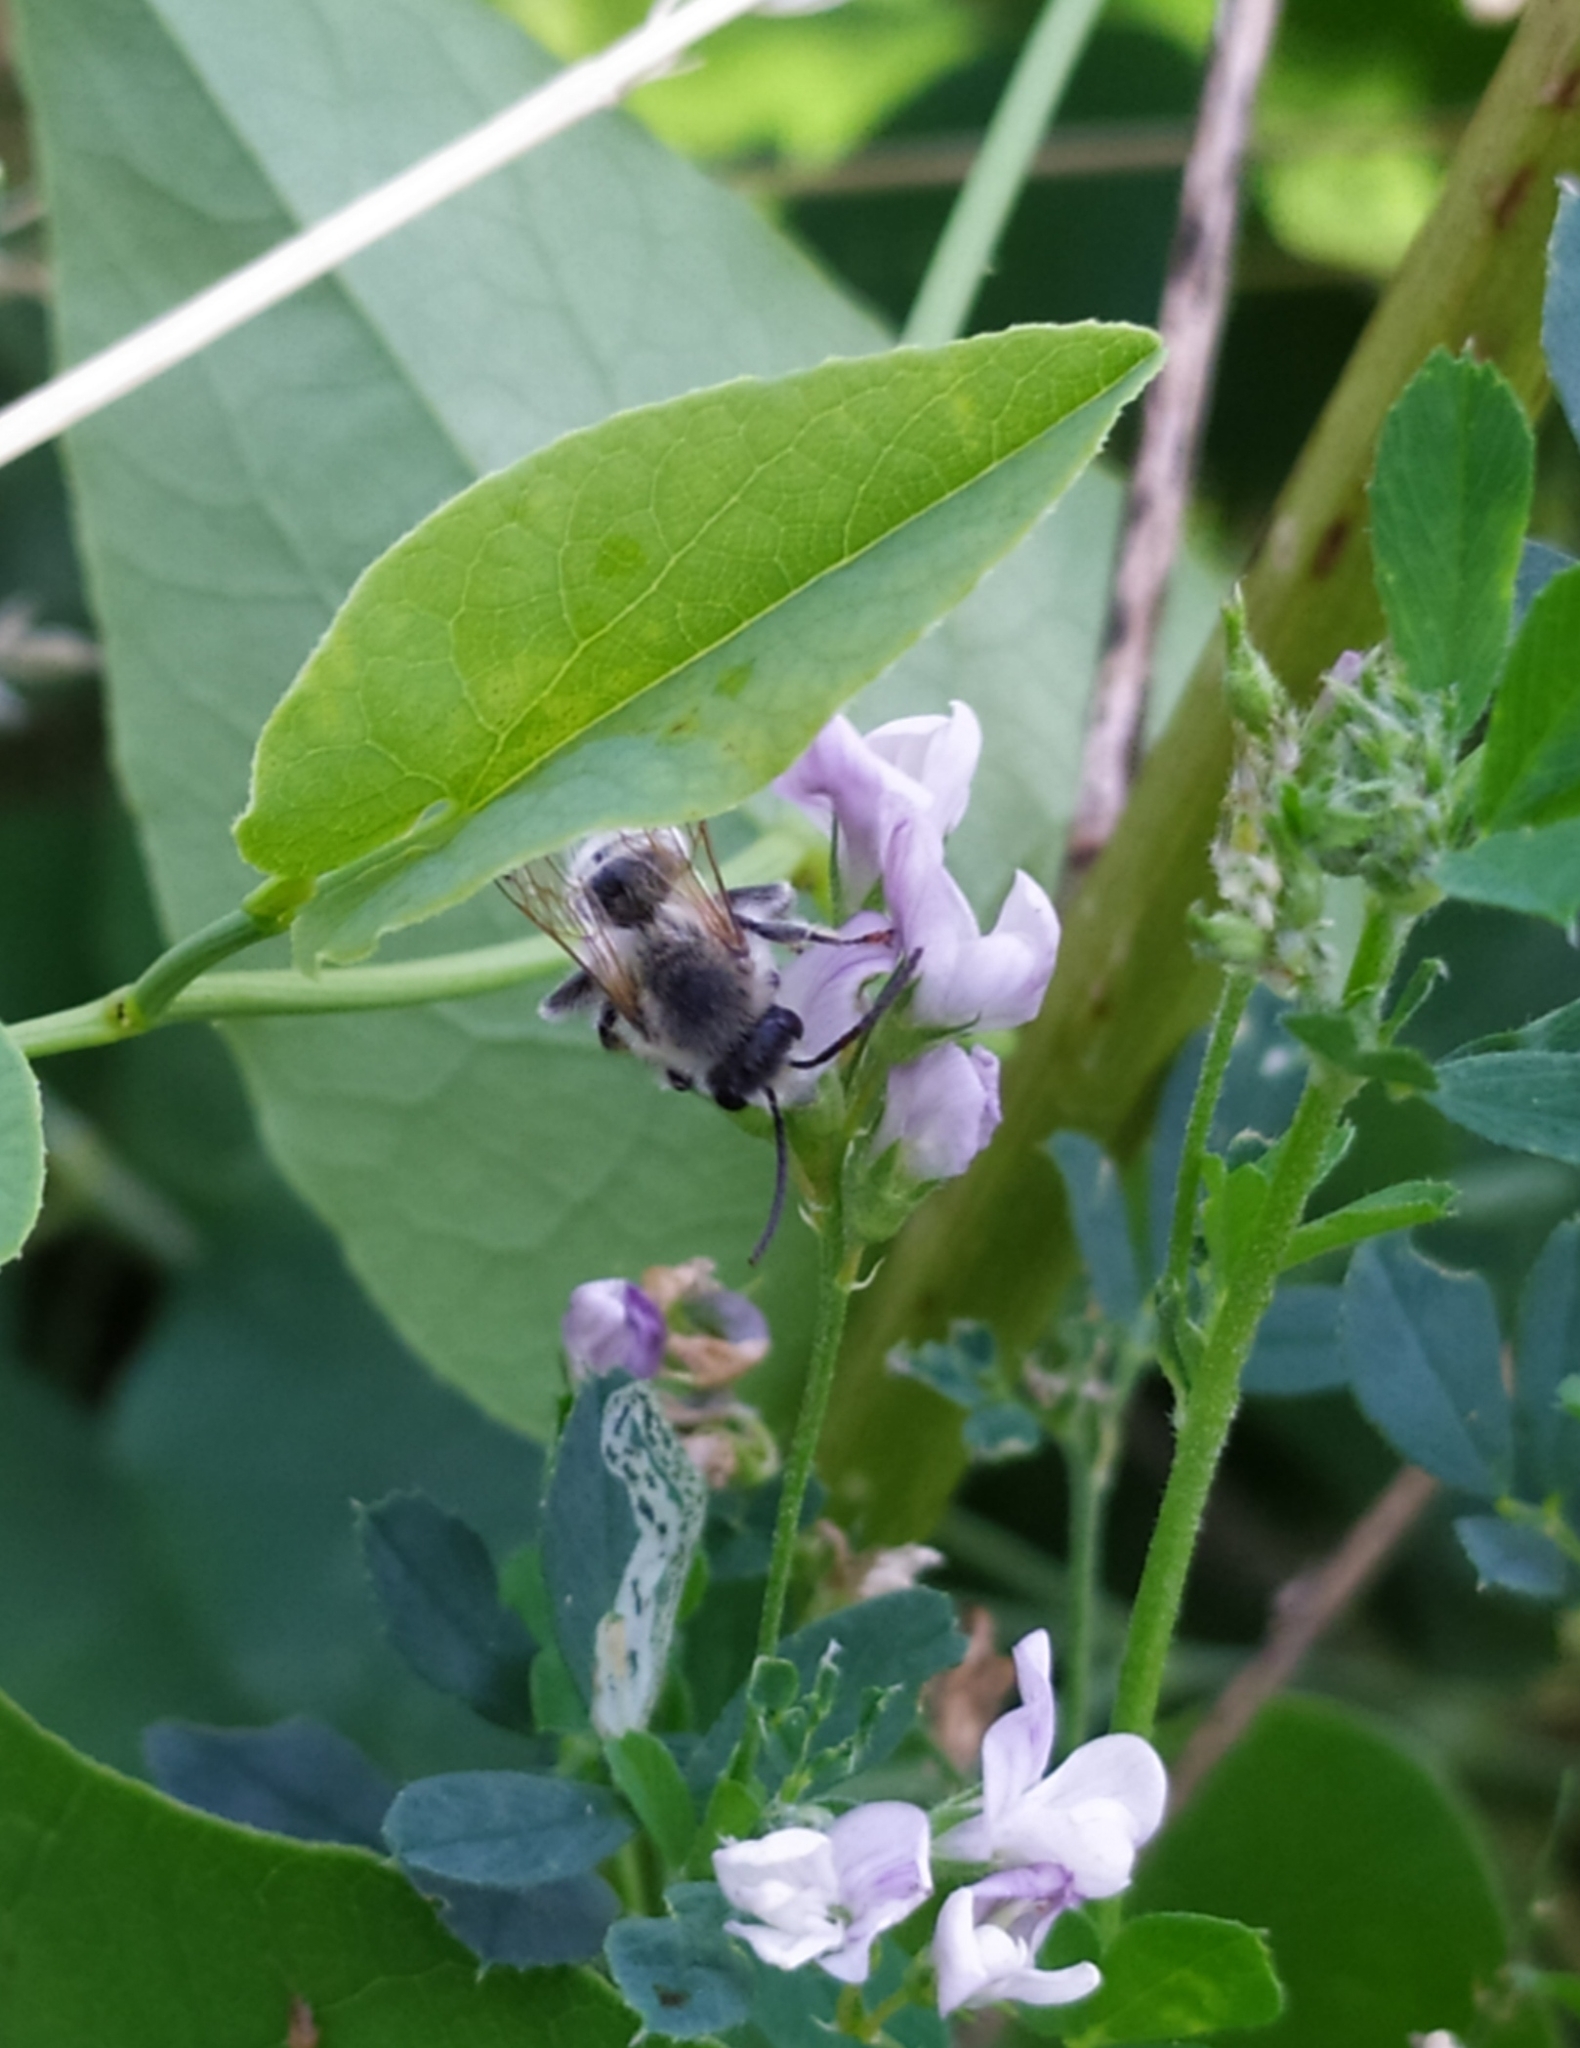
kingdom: Animalia
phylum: Arthropoda
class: Insecta
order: Hymenoptera
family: Melittidae
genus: Melitta
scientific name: Melitta leporina
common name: Clover melitta
